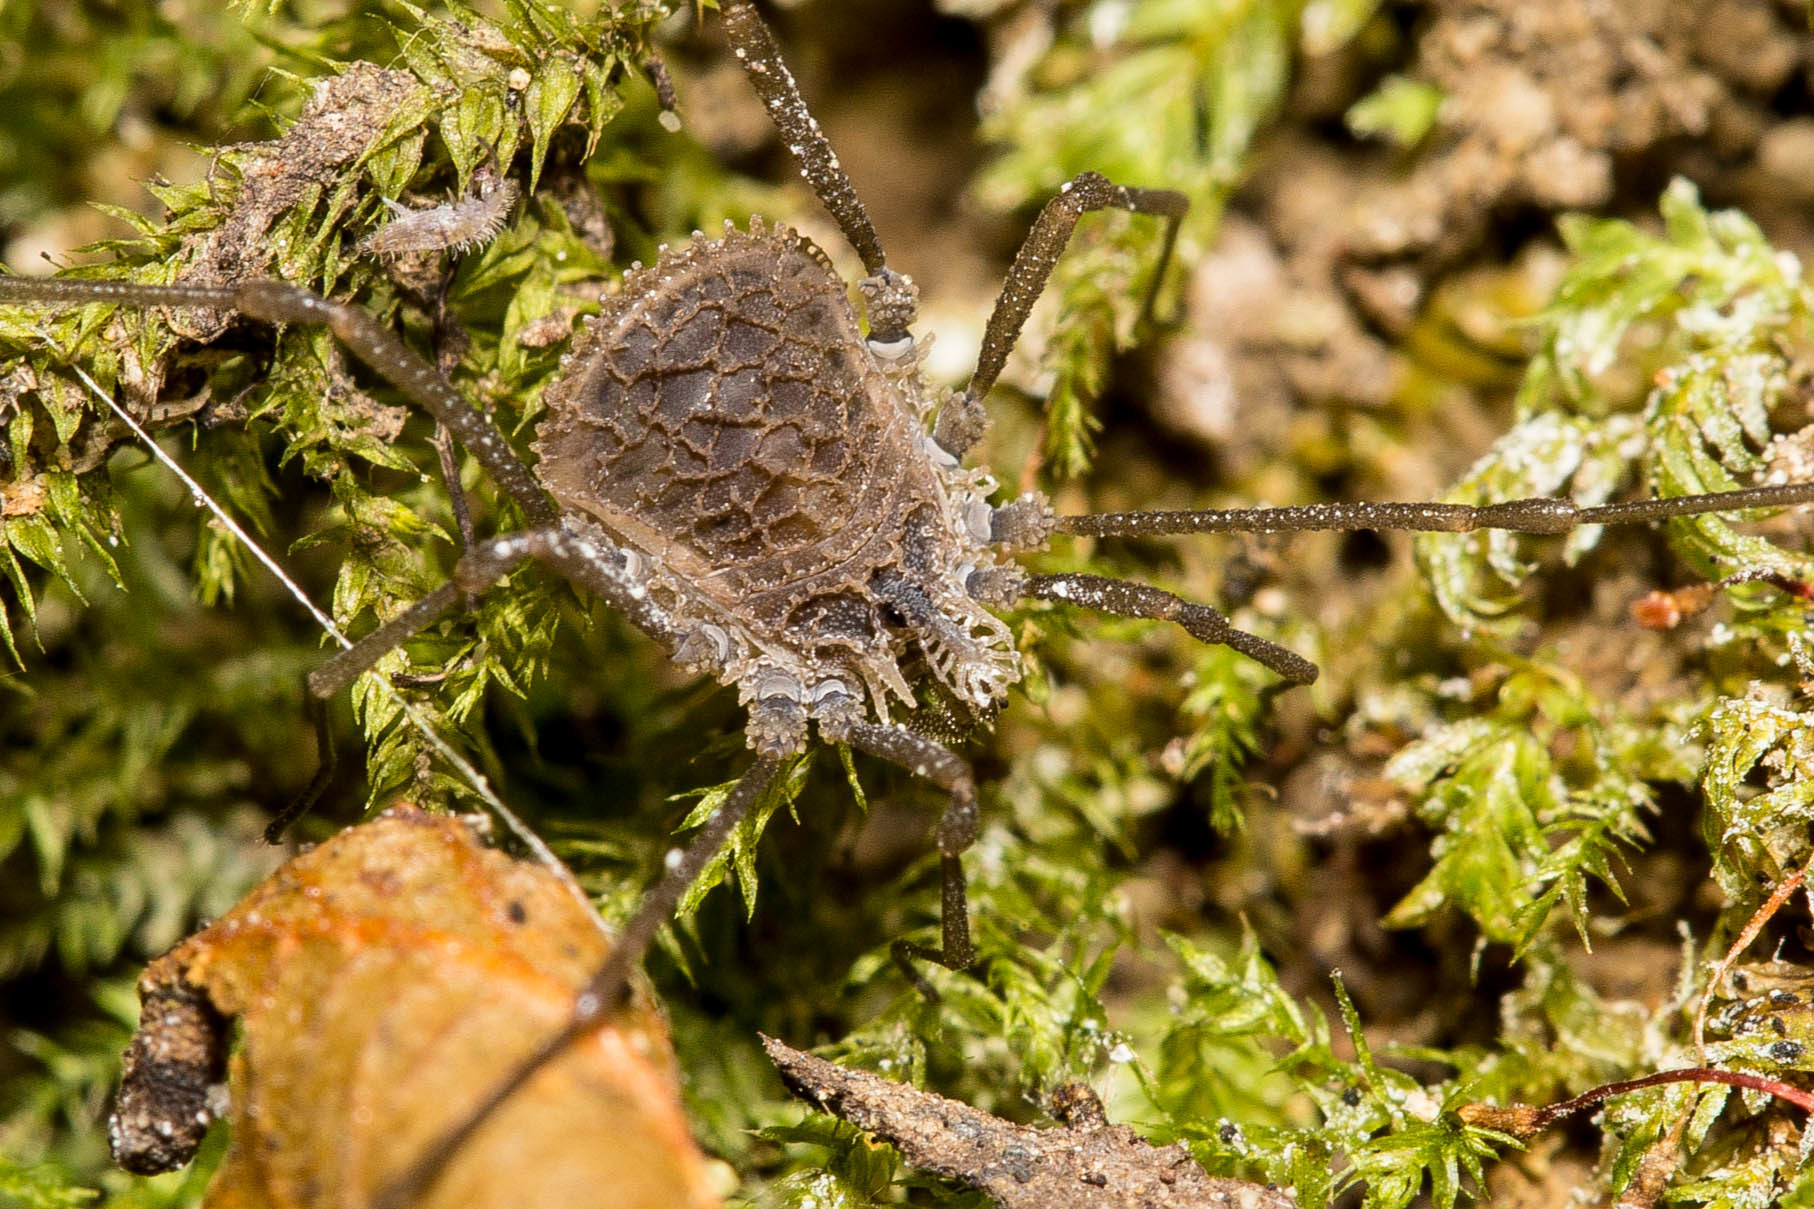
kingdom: Animalia
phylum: Arthropoda
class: Arachnida
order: Opiliones
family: Nemastomatidae
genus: Ortholasma
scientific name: Ortholasma rugosum
